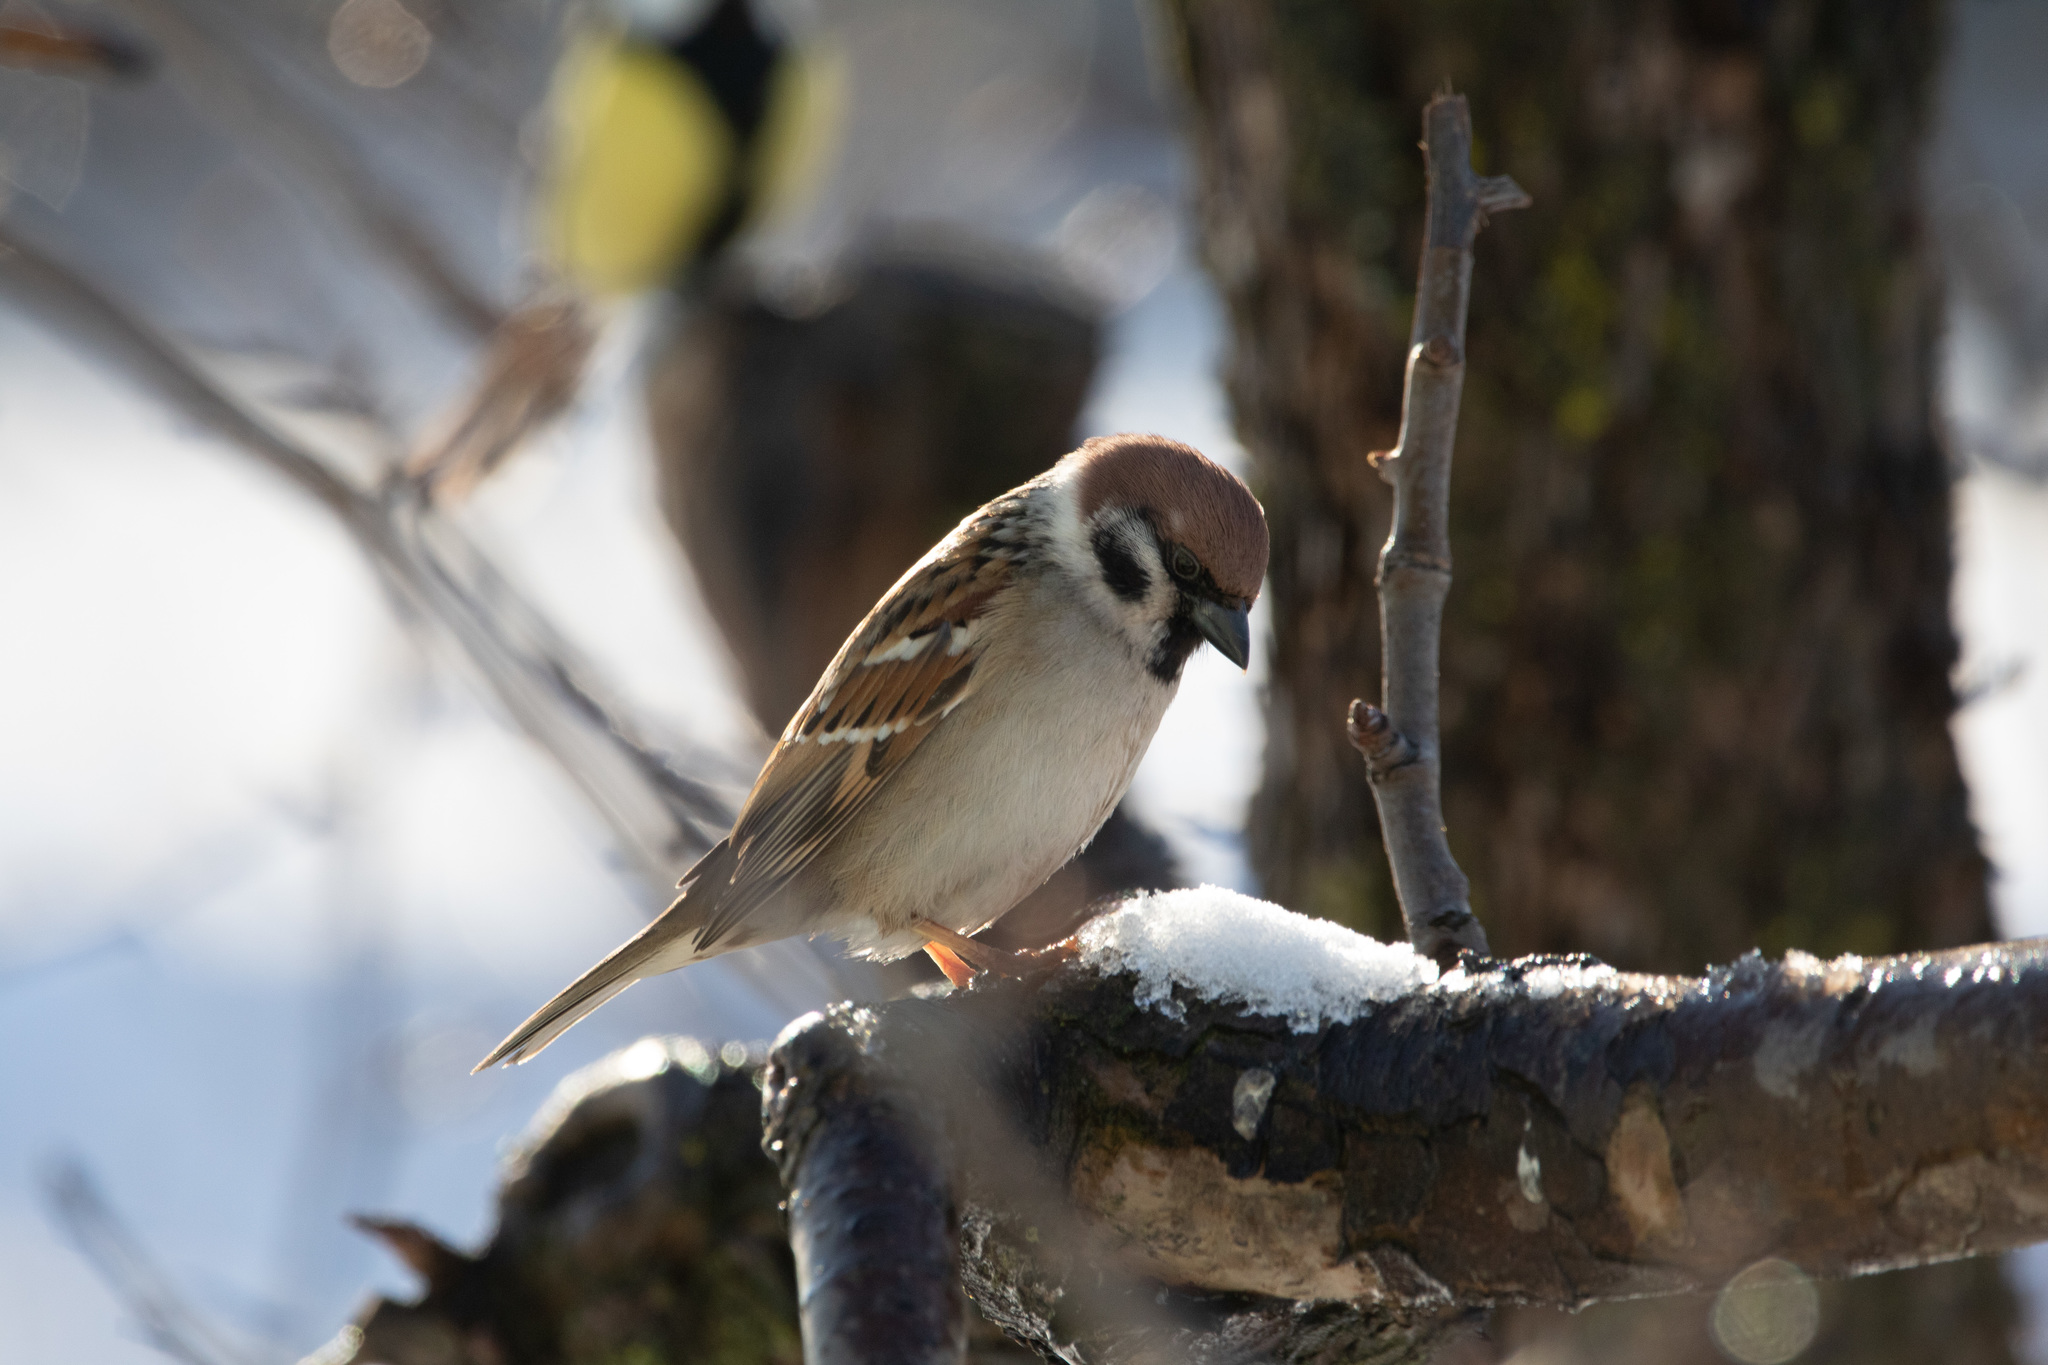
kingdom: Animalia
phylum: Chordata
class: Aves
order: Passeriformes
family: Passeridae
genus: Passer
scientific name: Passer montanus
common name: Eurasian tree sparrow
